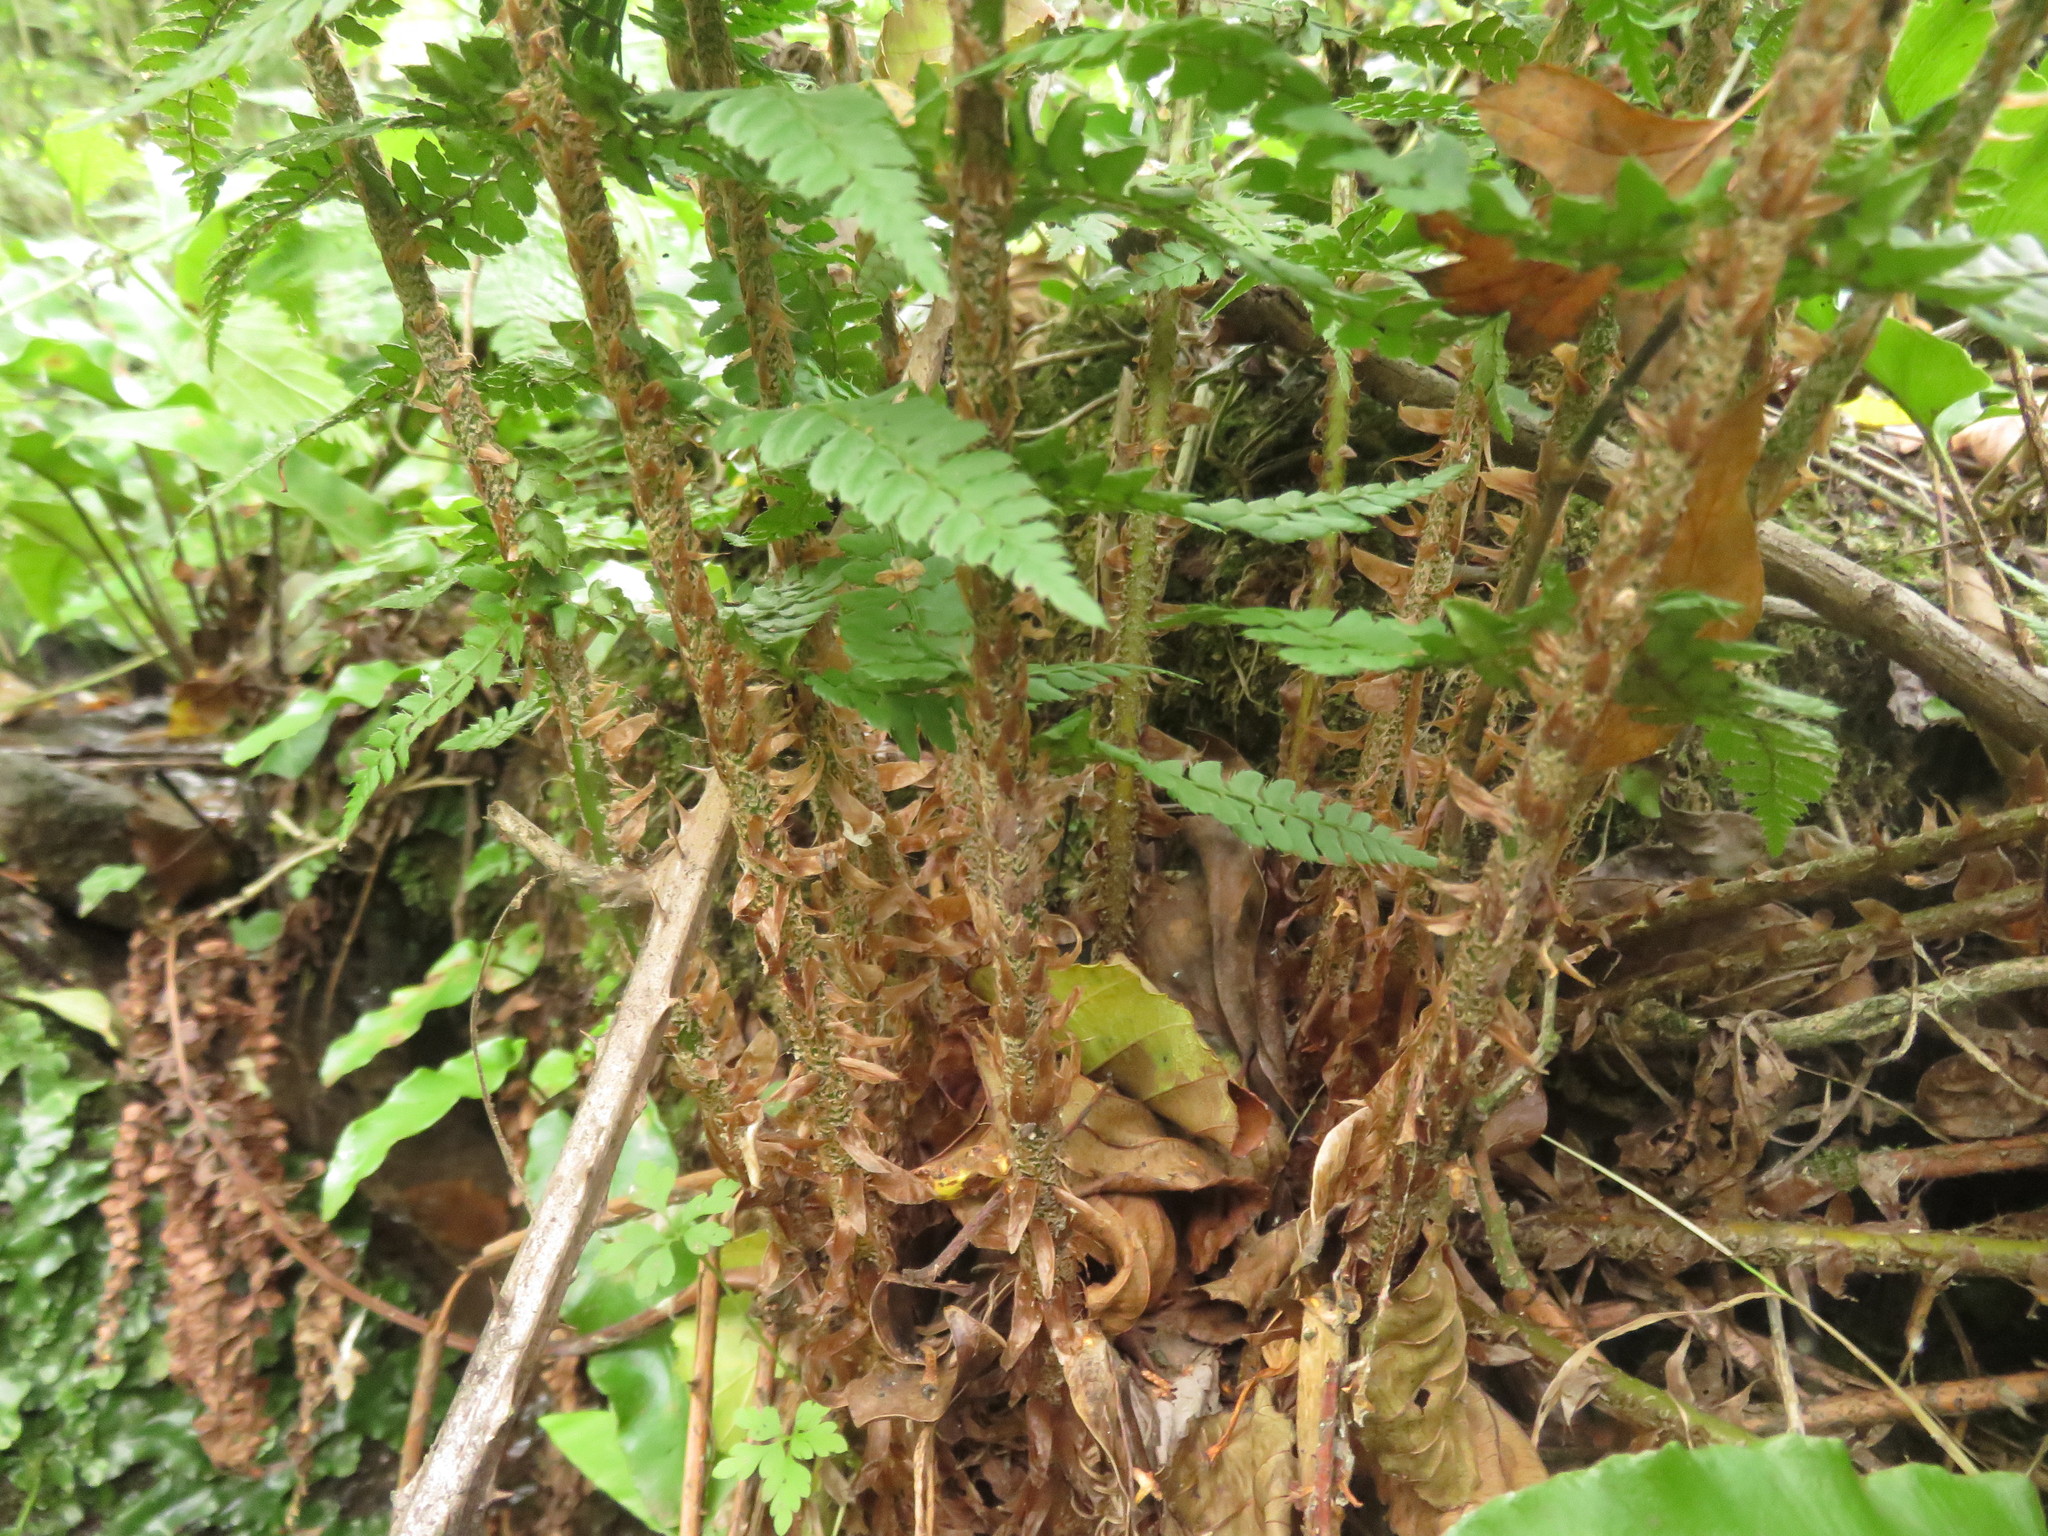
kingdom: Plantae
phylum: Tracheophyta
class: Polypodiopsida
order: Polypodiales
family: Dryopteridaceae
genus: Polystichum
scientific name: Polystichum setiferum
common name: Soft shield-fern
